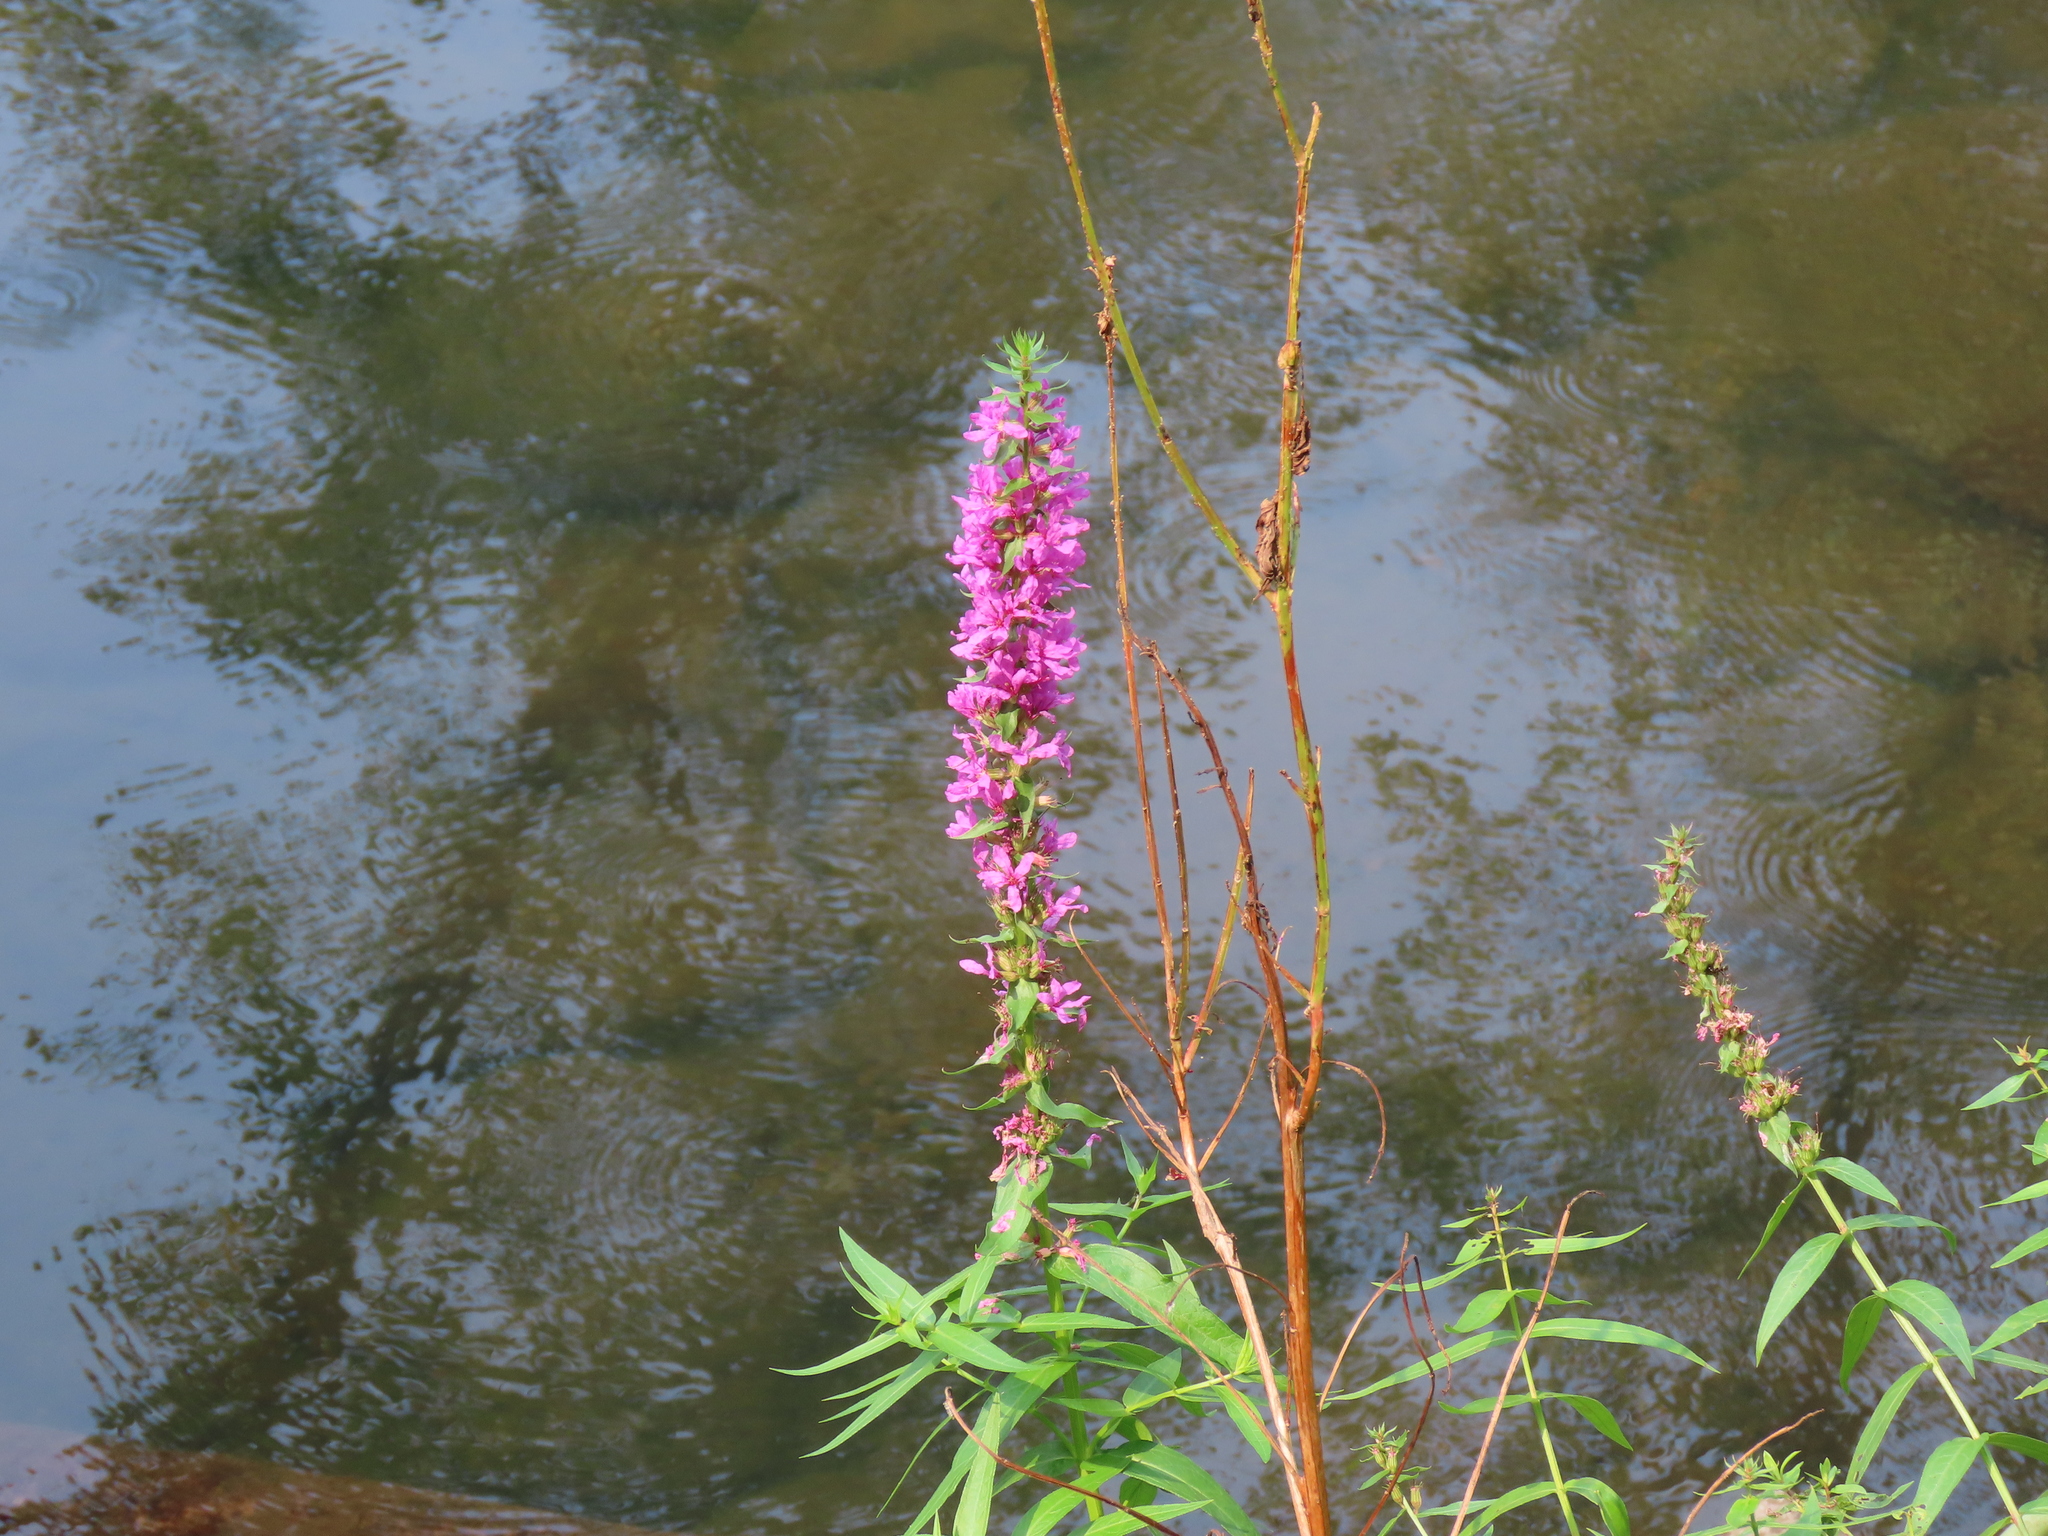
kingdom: Plantae
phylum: Tracheophyta
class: Magnoliopsida
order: Myrtales
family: Lythraceae
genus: Lythrum
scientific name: Lythrum salicaria
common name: Purple loosestrife
